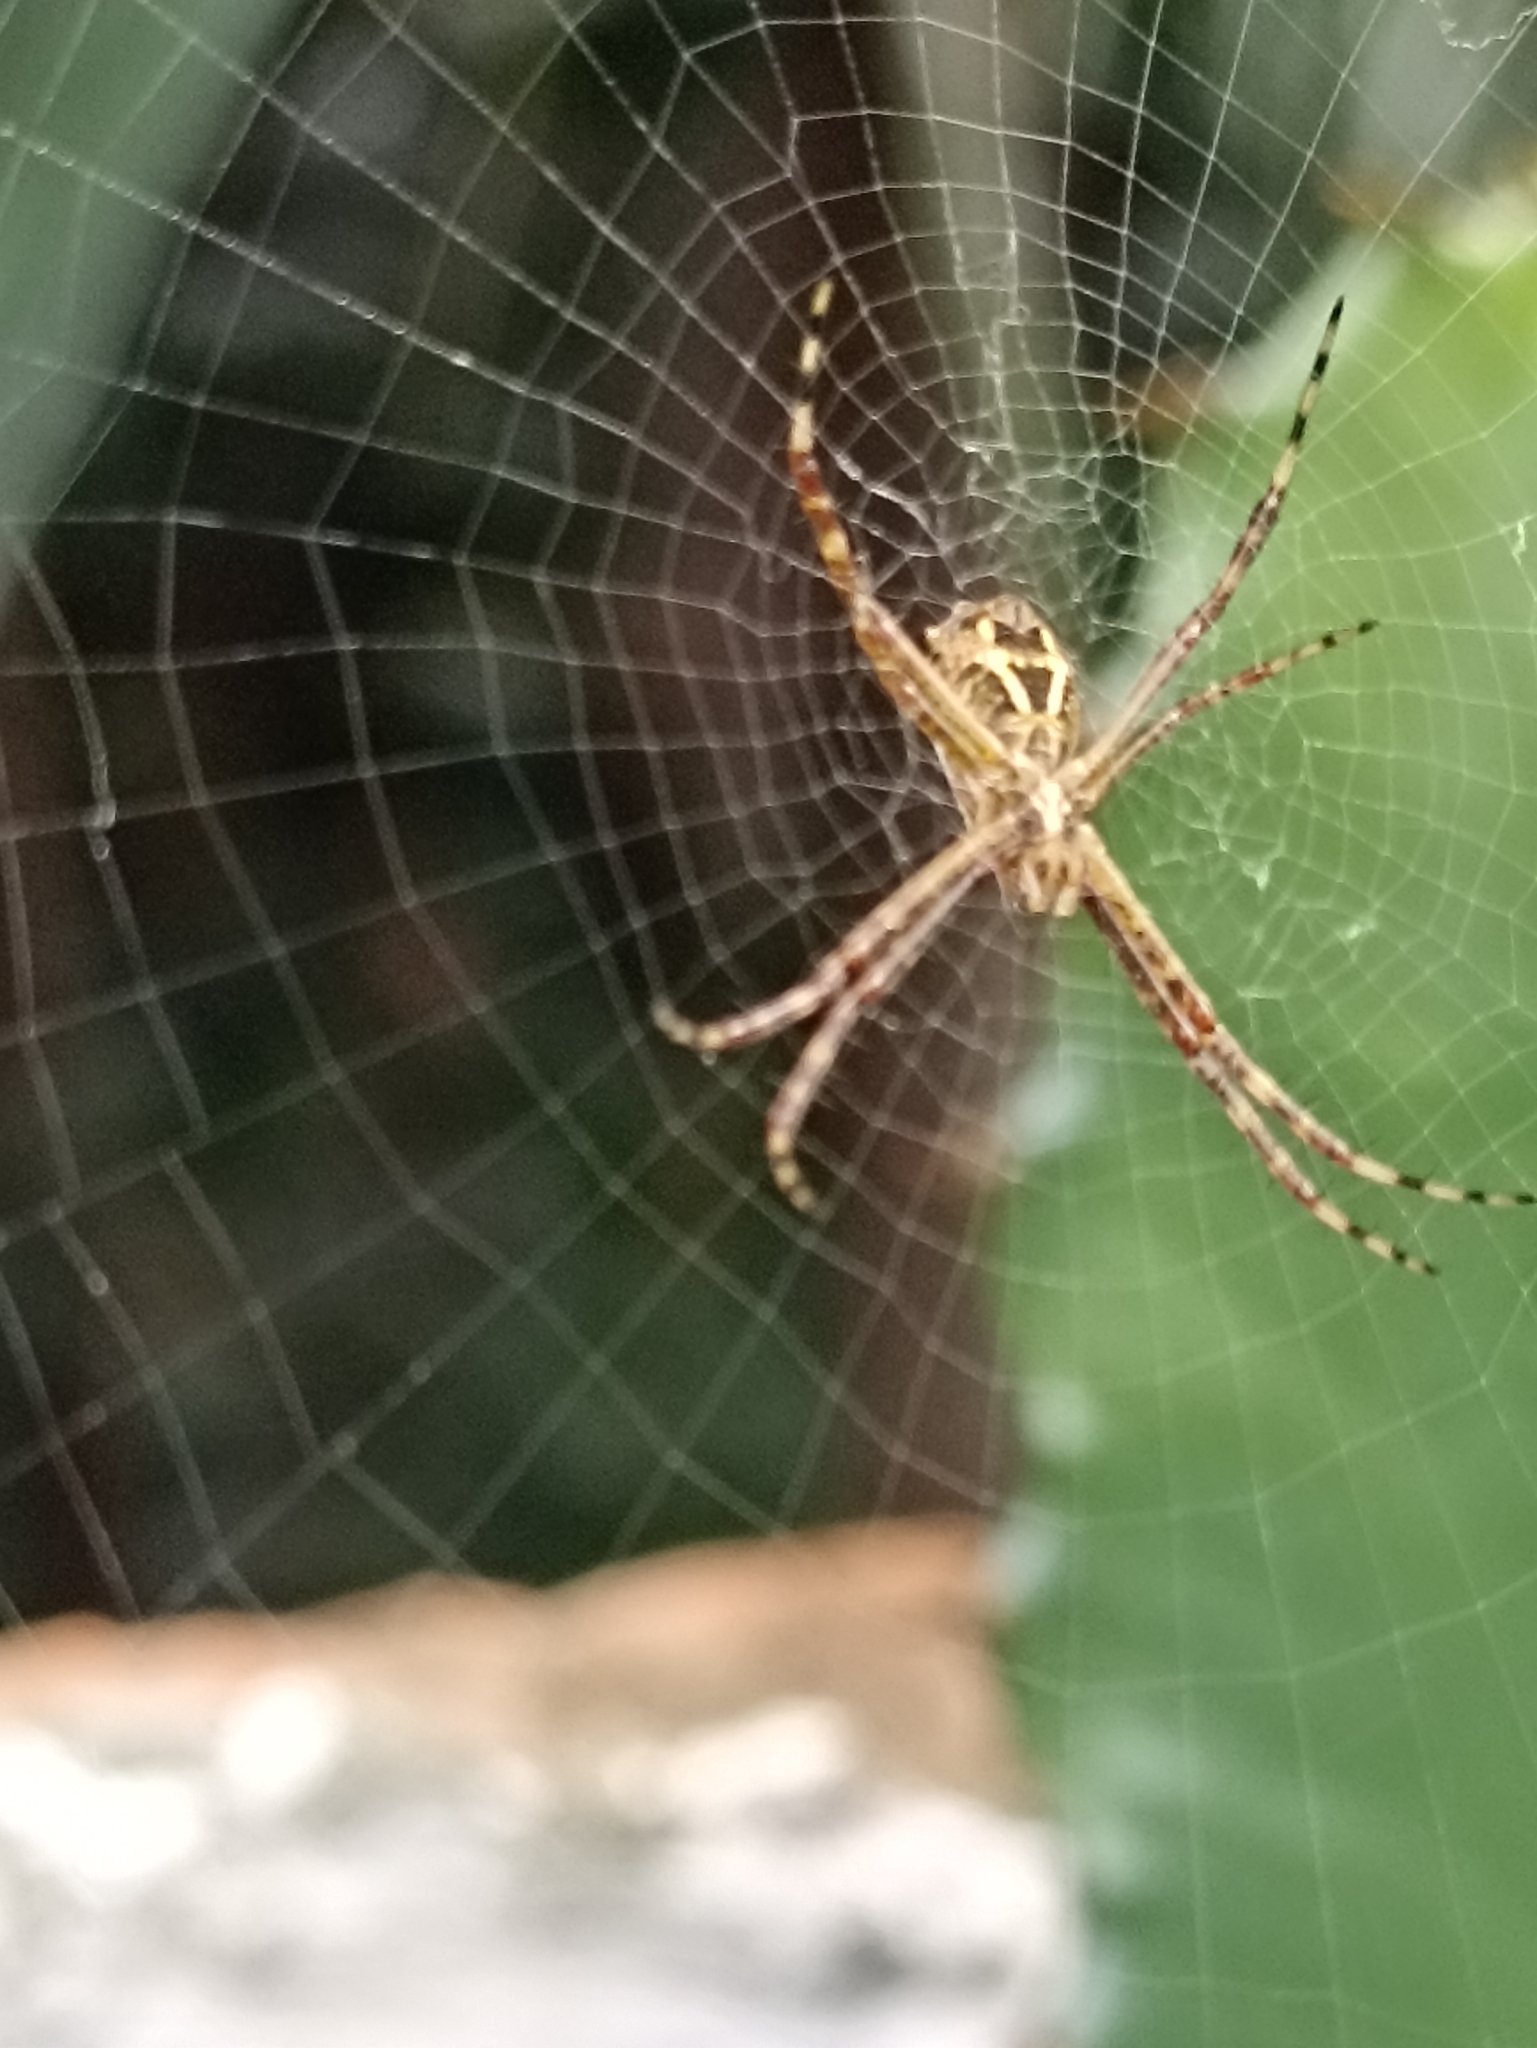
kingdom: Animalia
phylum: Arthropoda
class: Arachnida
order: Araneae
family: Araneidae
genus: Argiope
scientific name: Argiope argentata
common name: Orb weavers
